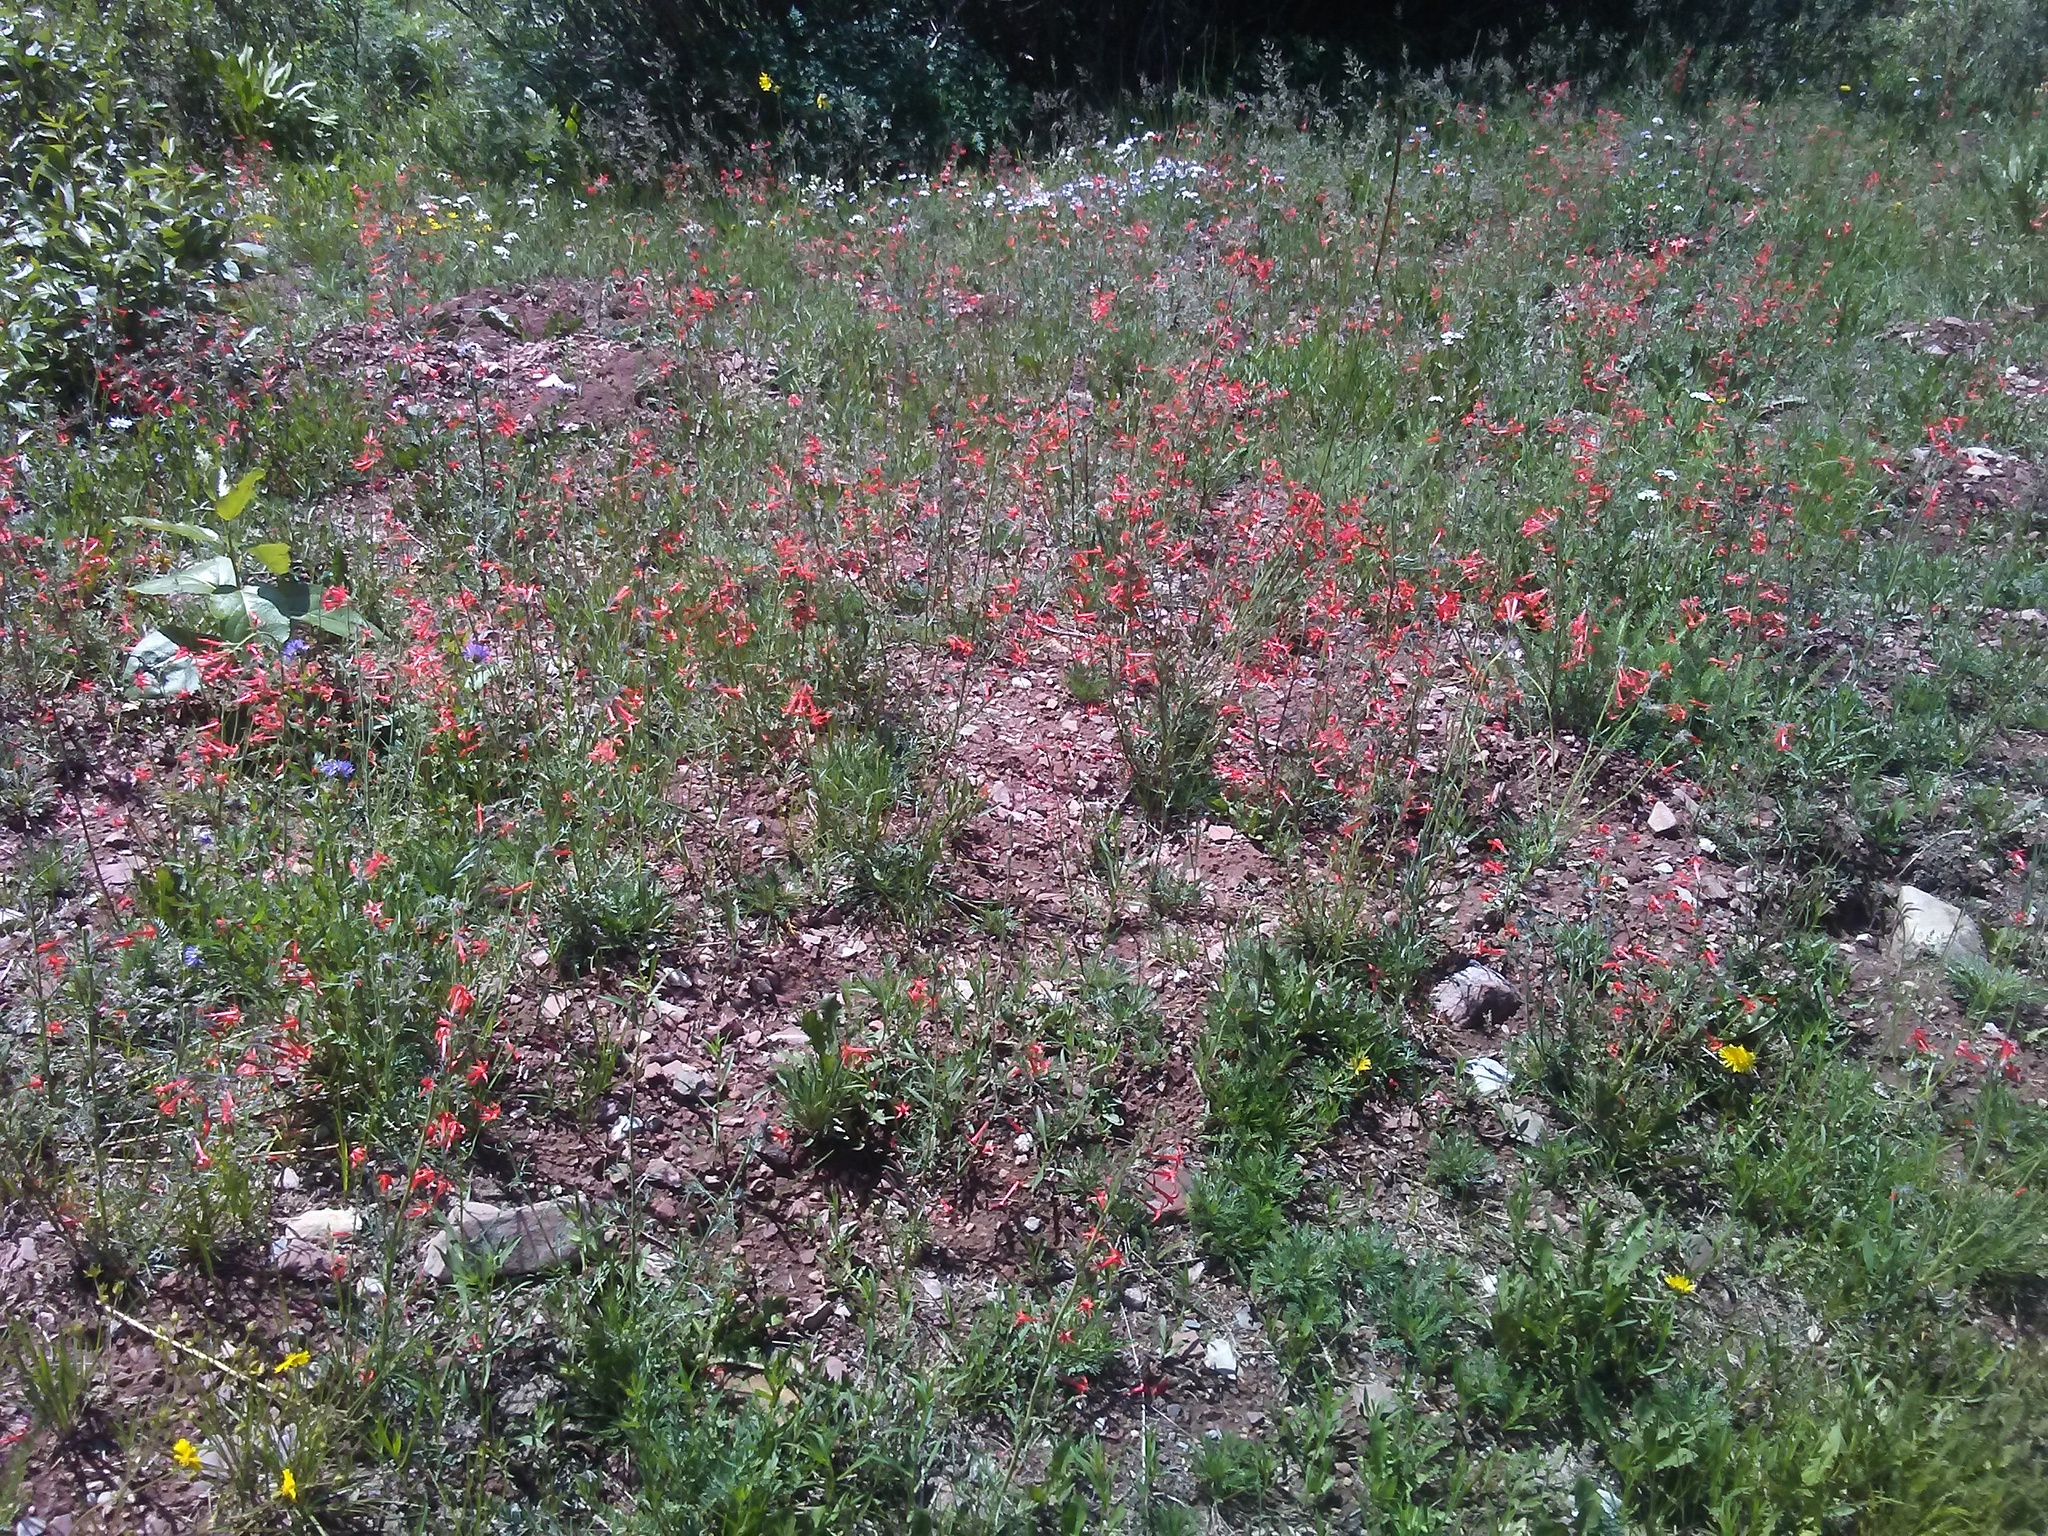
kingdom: Plantae
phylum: Tracheophyta
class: Magnoliopsida
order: Ericales
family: Polemoniaceae
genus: Ipomopsis
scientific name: Ipomopsis aggregata
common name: Scarlet gilia
